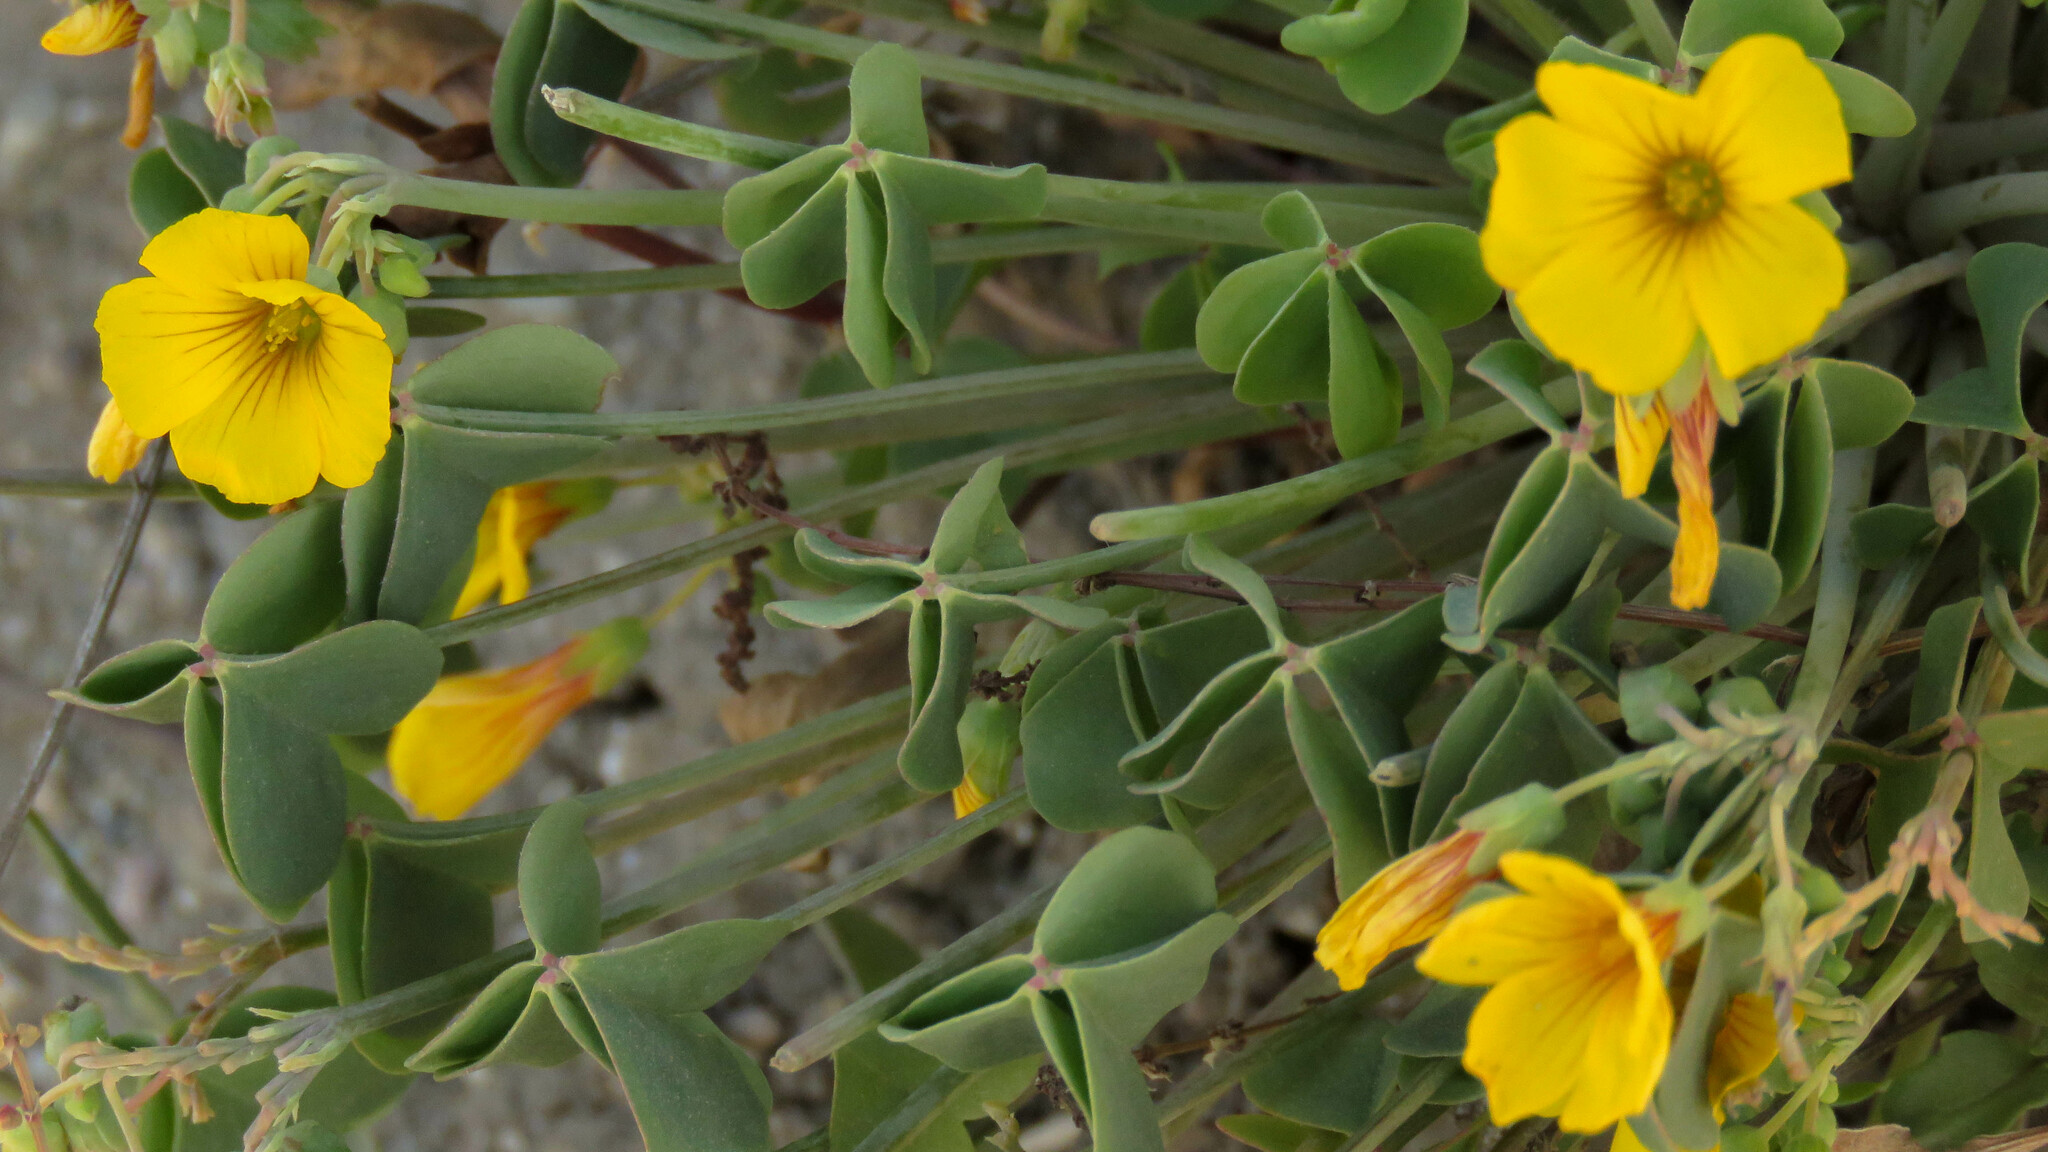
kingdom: Plantae
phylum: Tracheophyta
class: Magnoliopsida
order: Oxalidales
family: Oxalidaceae
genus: Oxalis
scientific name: Oxalis valdiviensis
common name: Chilean yellow-sorrel
